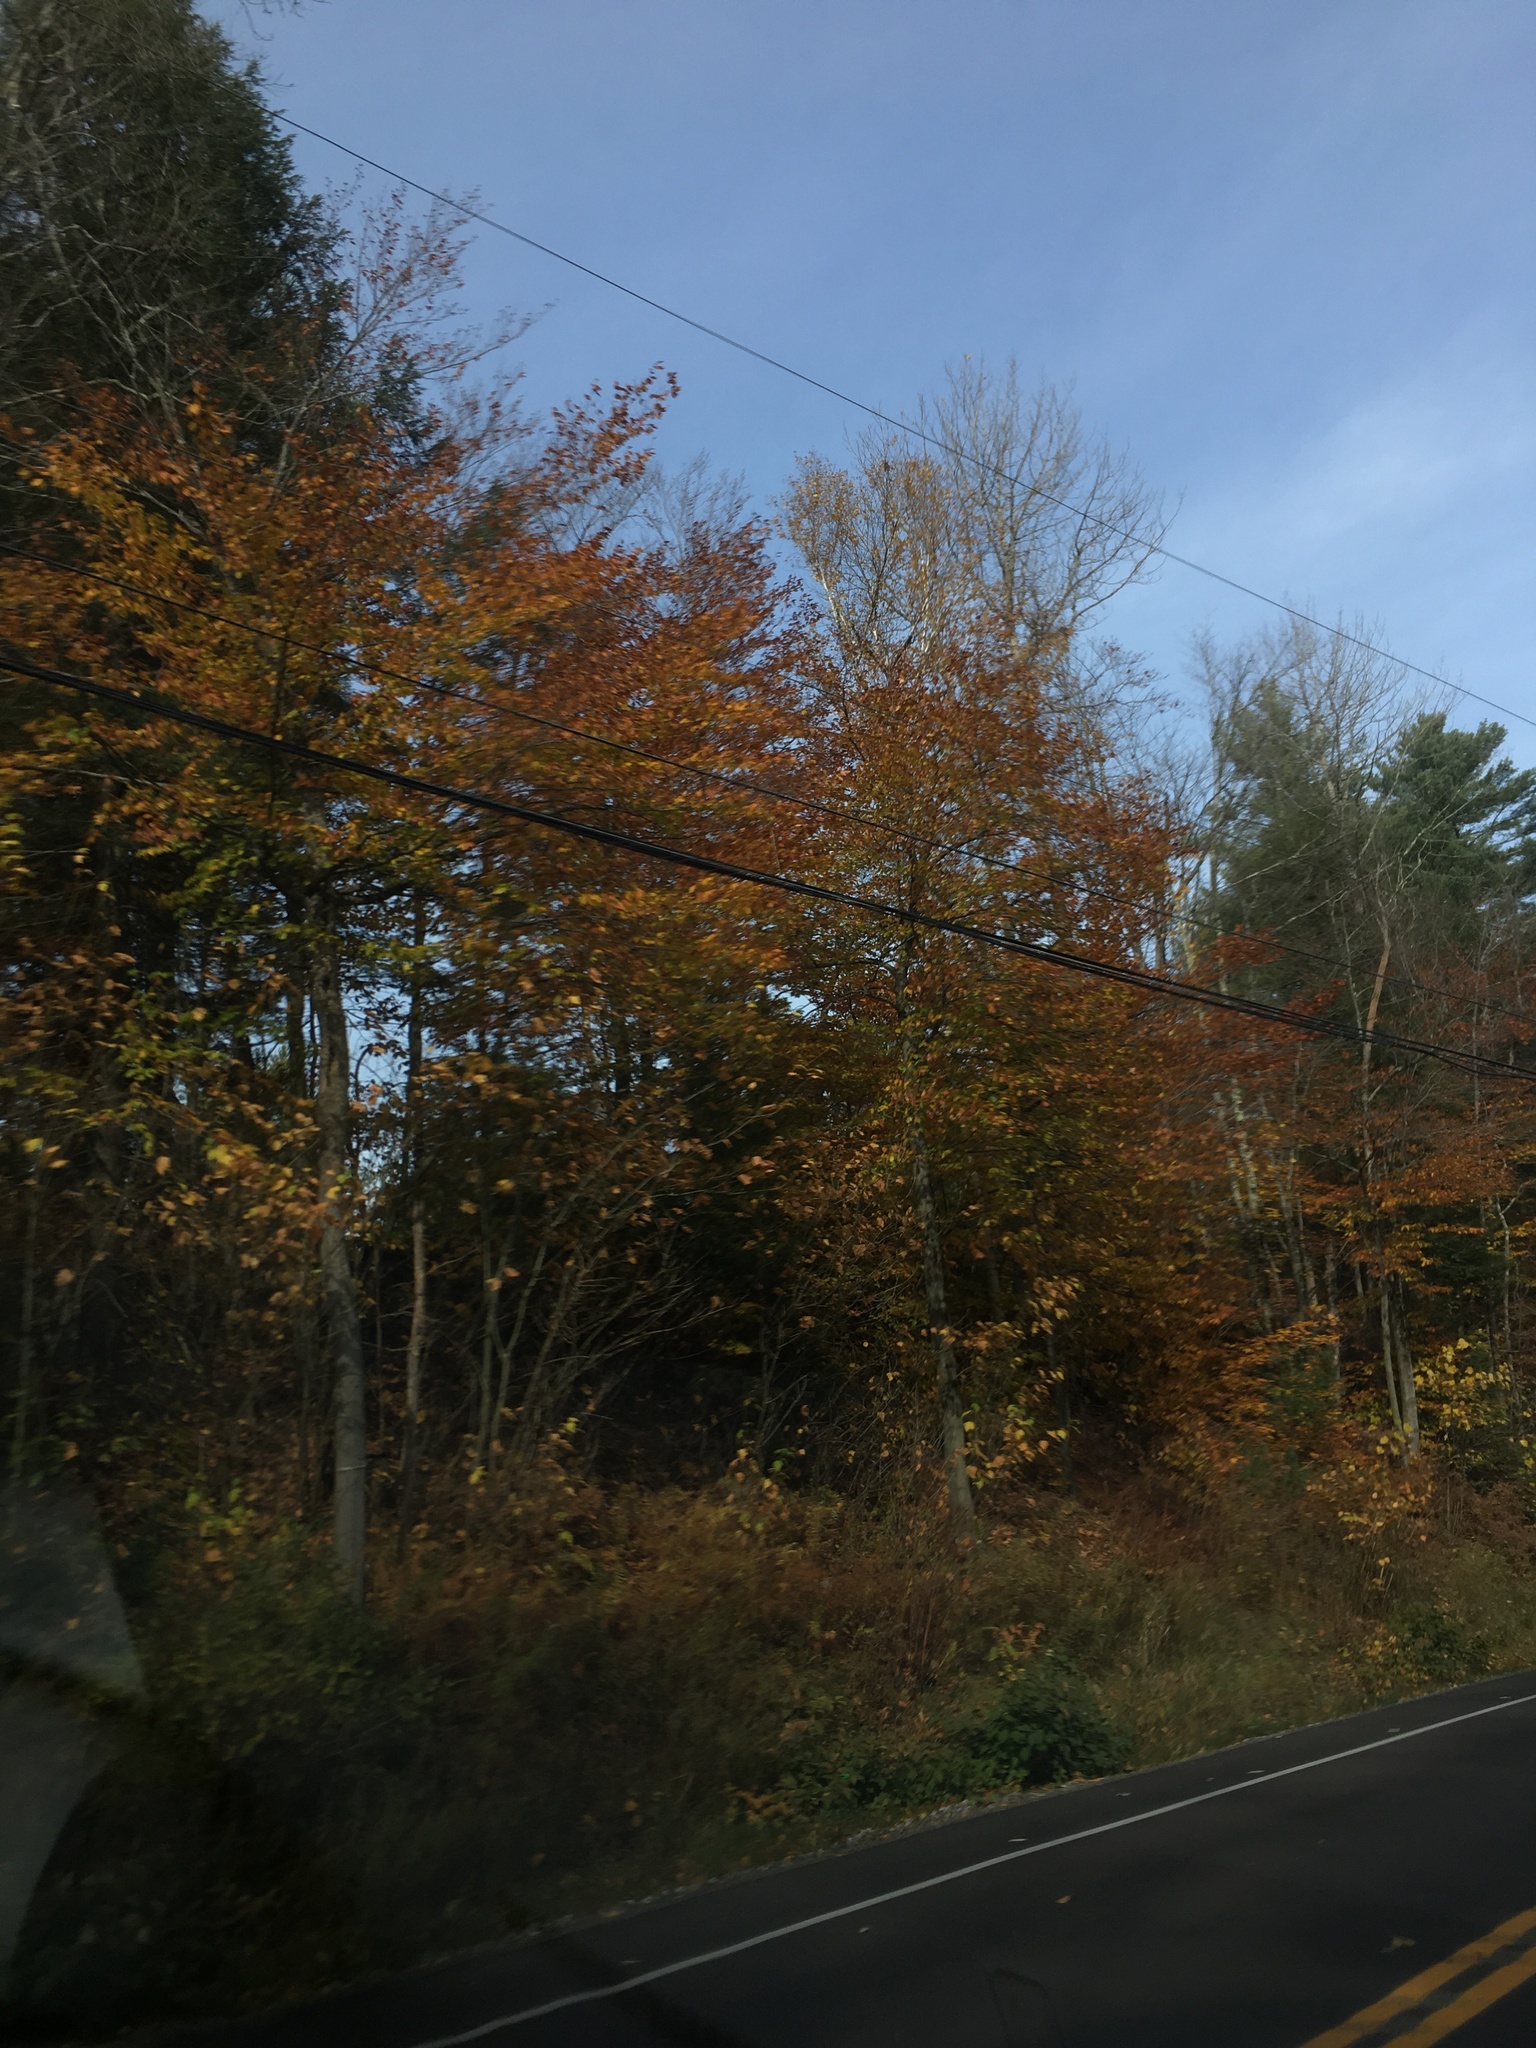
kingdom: Plantae
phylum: Tracheophyta
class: Magnoliopsida
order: Fagales
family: Fagaceae
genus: Fagus
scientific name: Fagus grandifolia
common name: American beech
